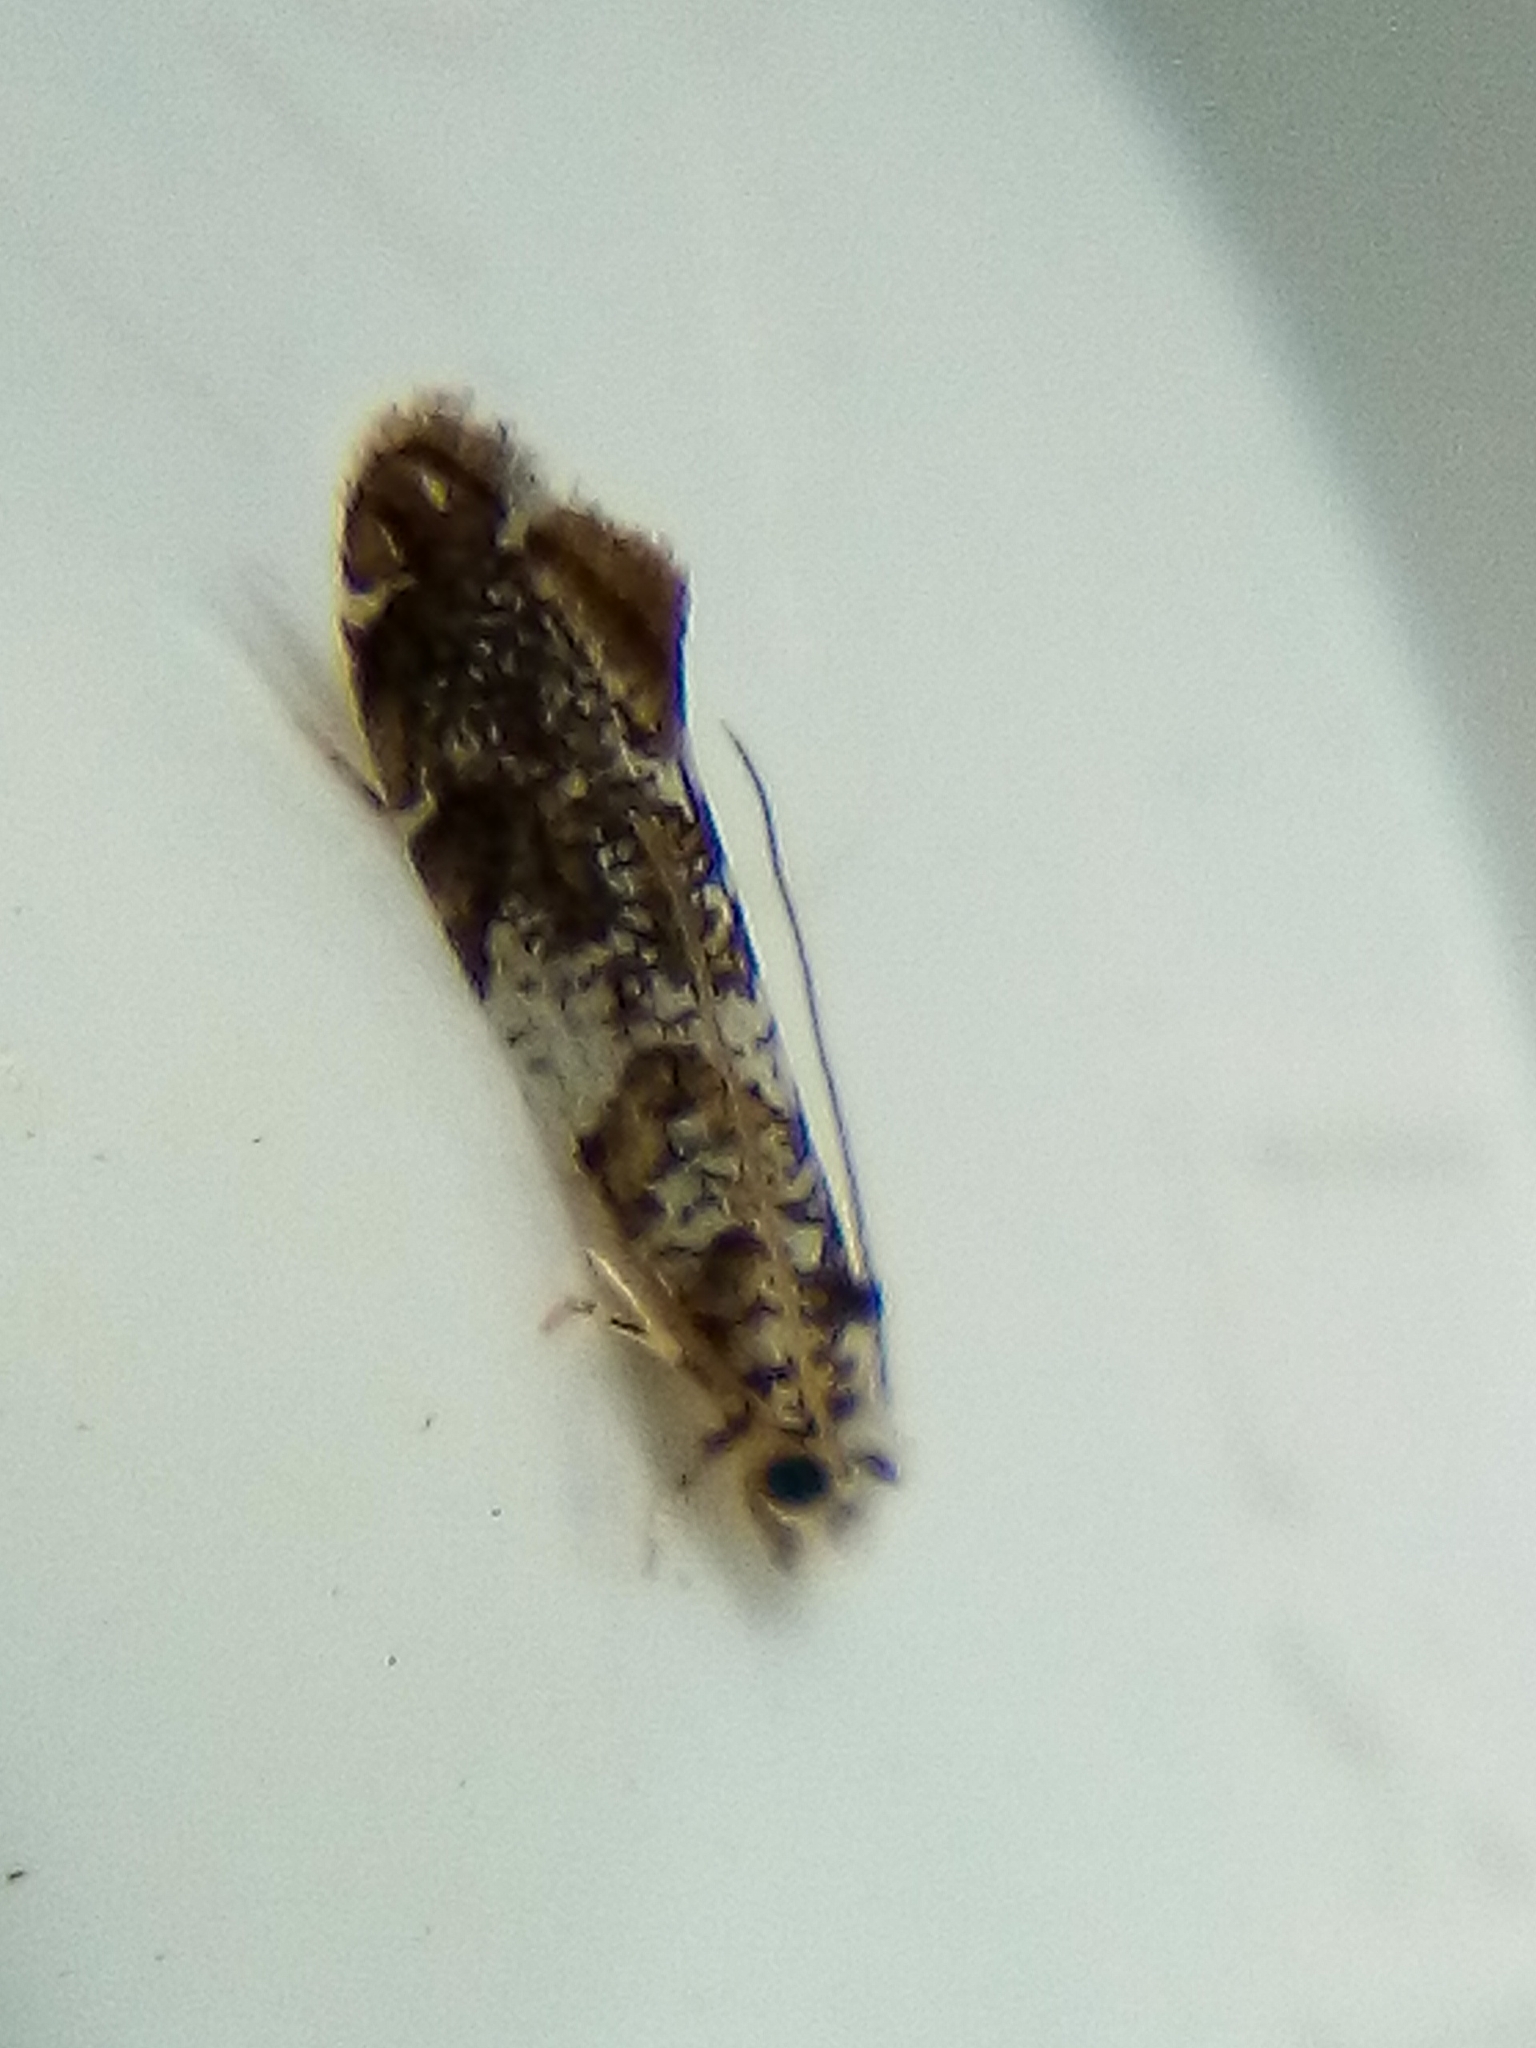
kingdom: Animalia
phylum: Arthropoda
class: Insecta
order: Lepidoptera
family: Tineidae
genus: Eschatotypa
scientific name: Eschatotypa derogatella
